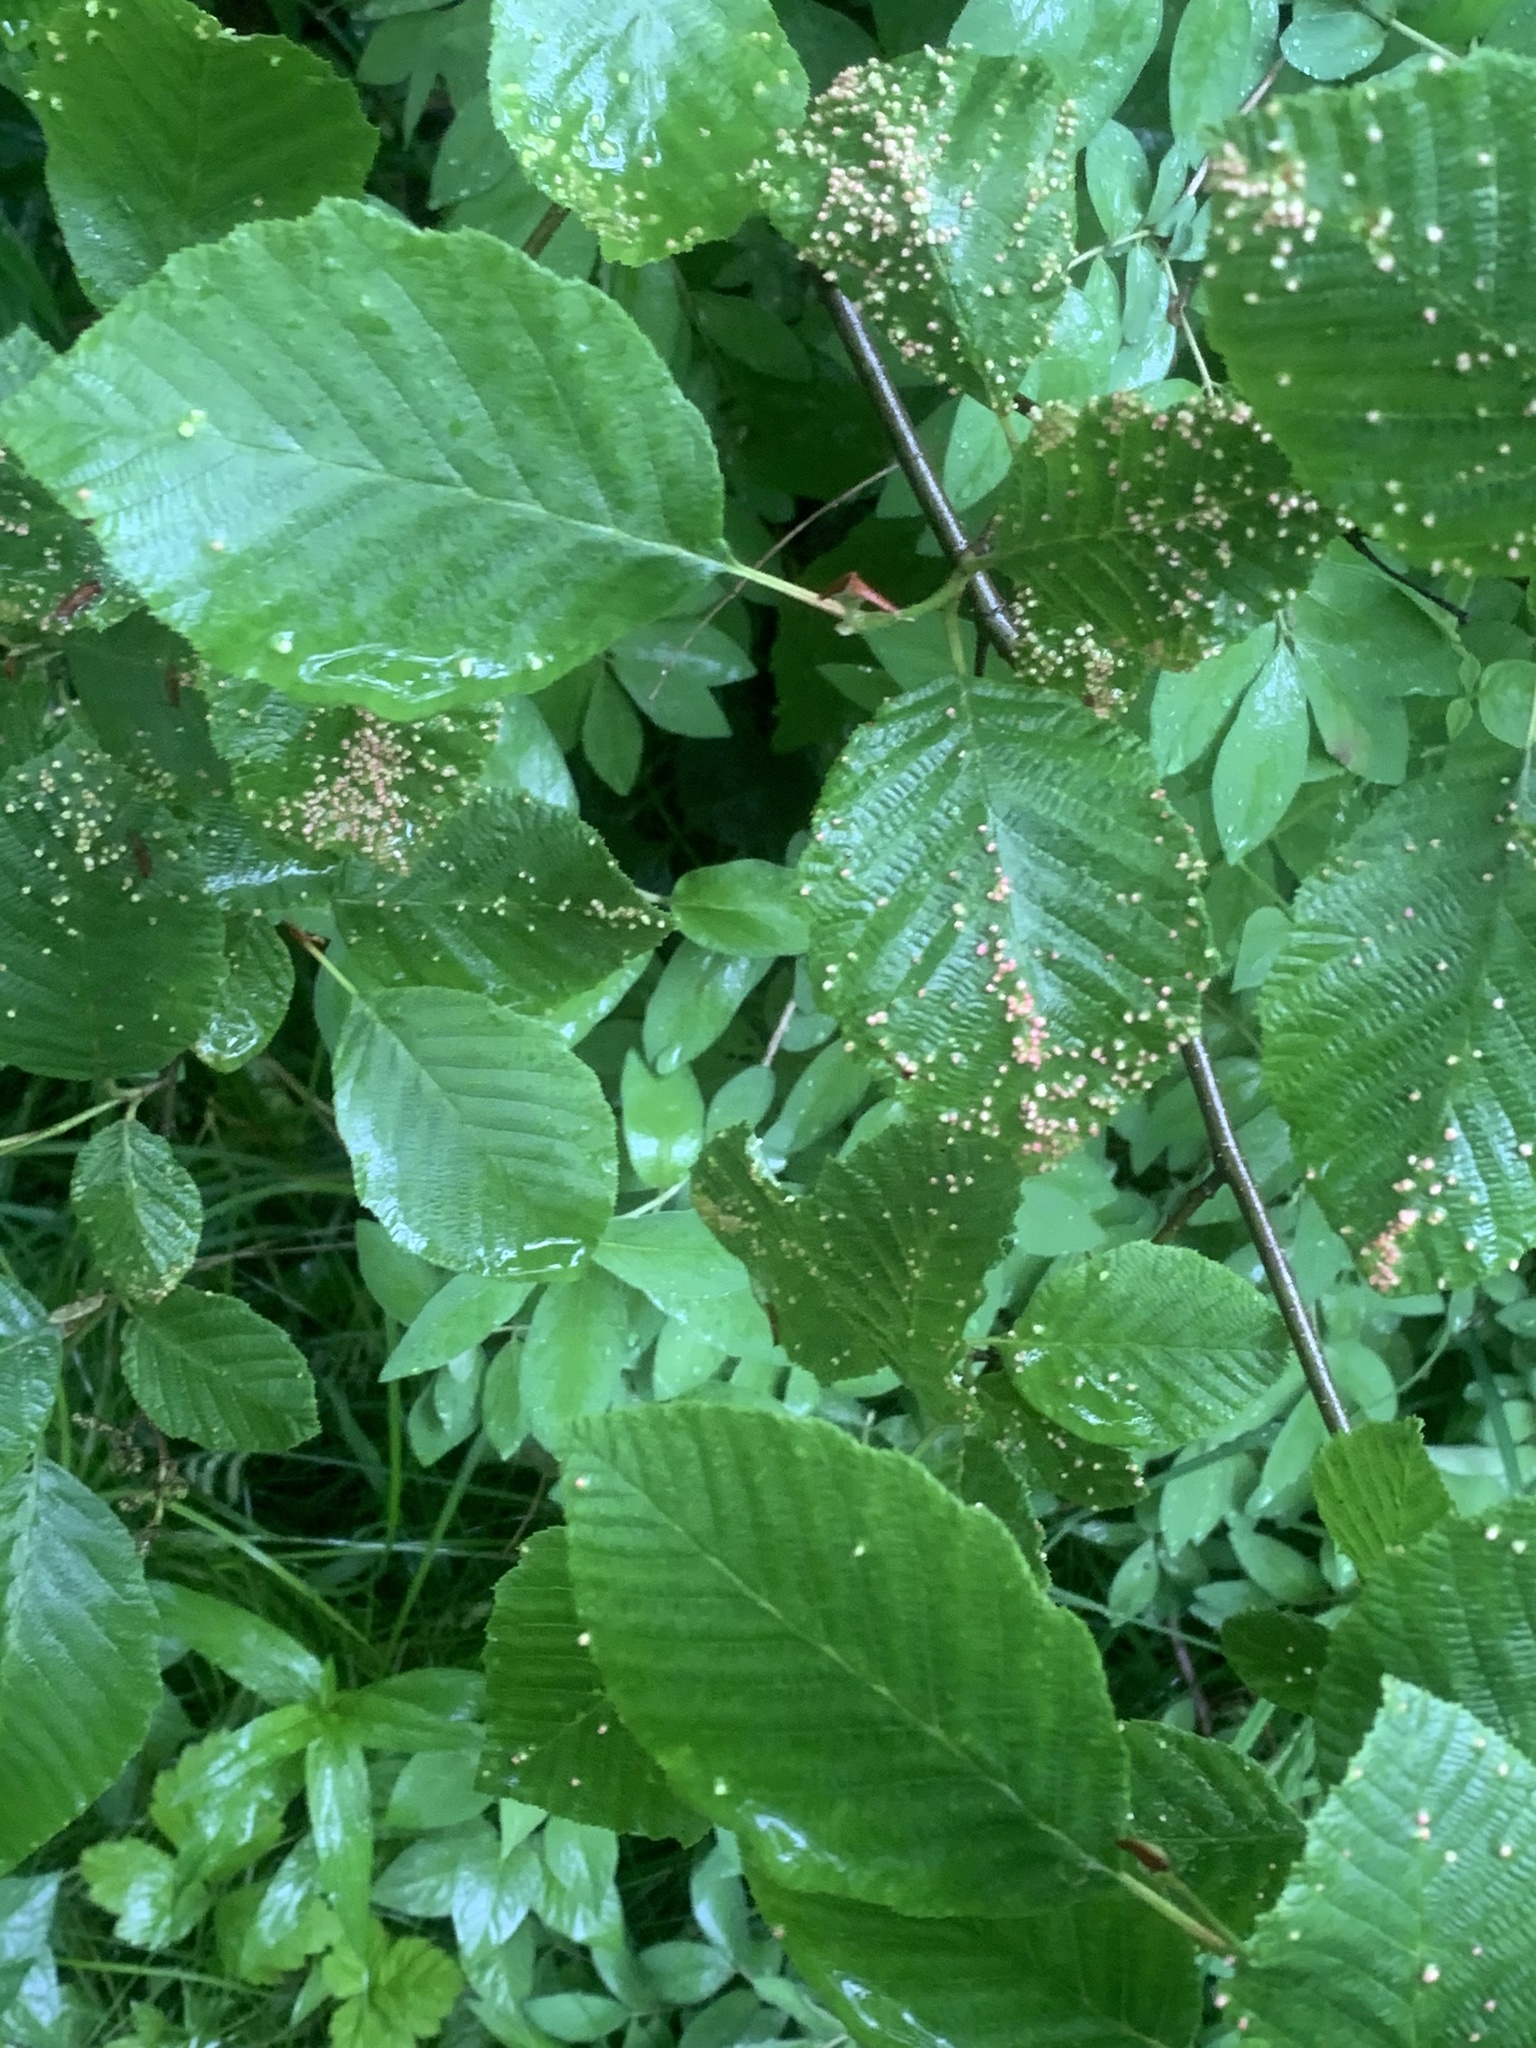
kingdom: Animalia
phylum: Arthropoda
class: Arachnida
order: Trombidiformes
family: Eriophyidae
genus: Eriophyes
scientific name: Eriophyes laevis
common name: Alder leaf gall mite
